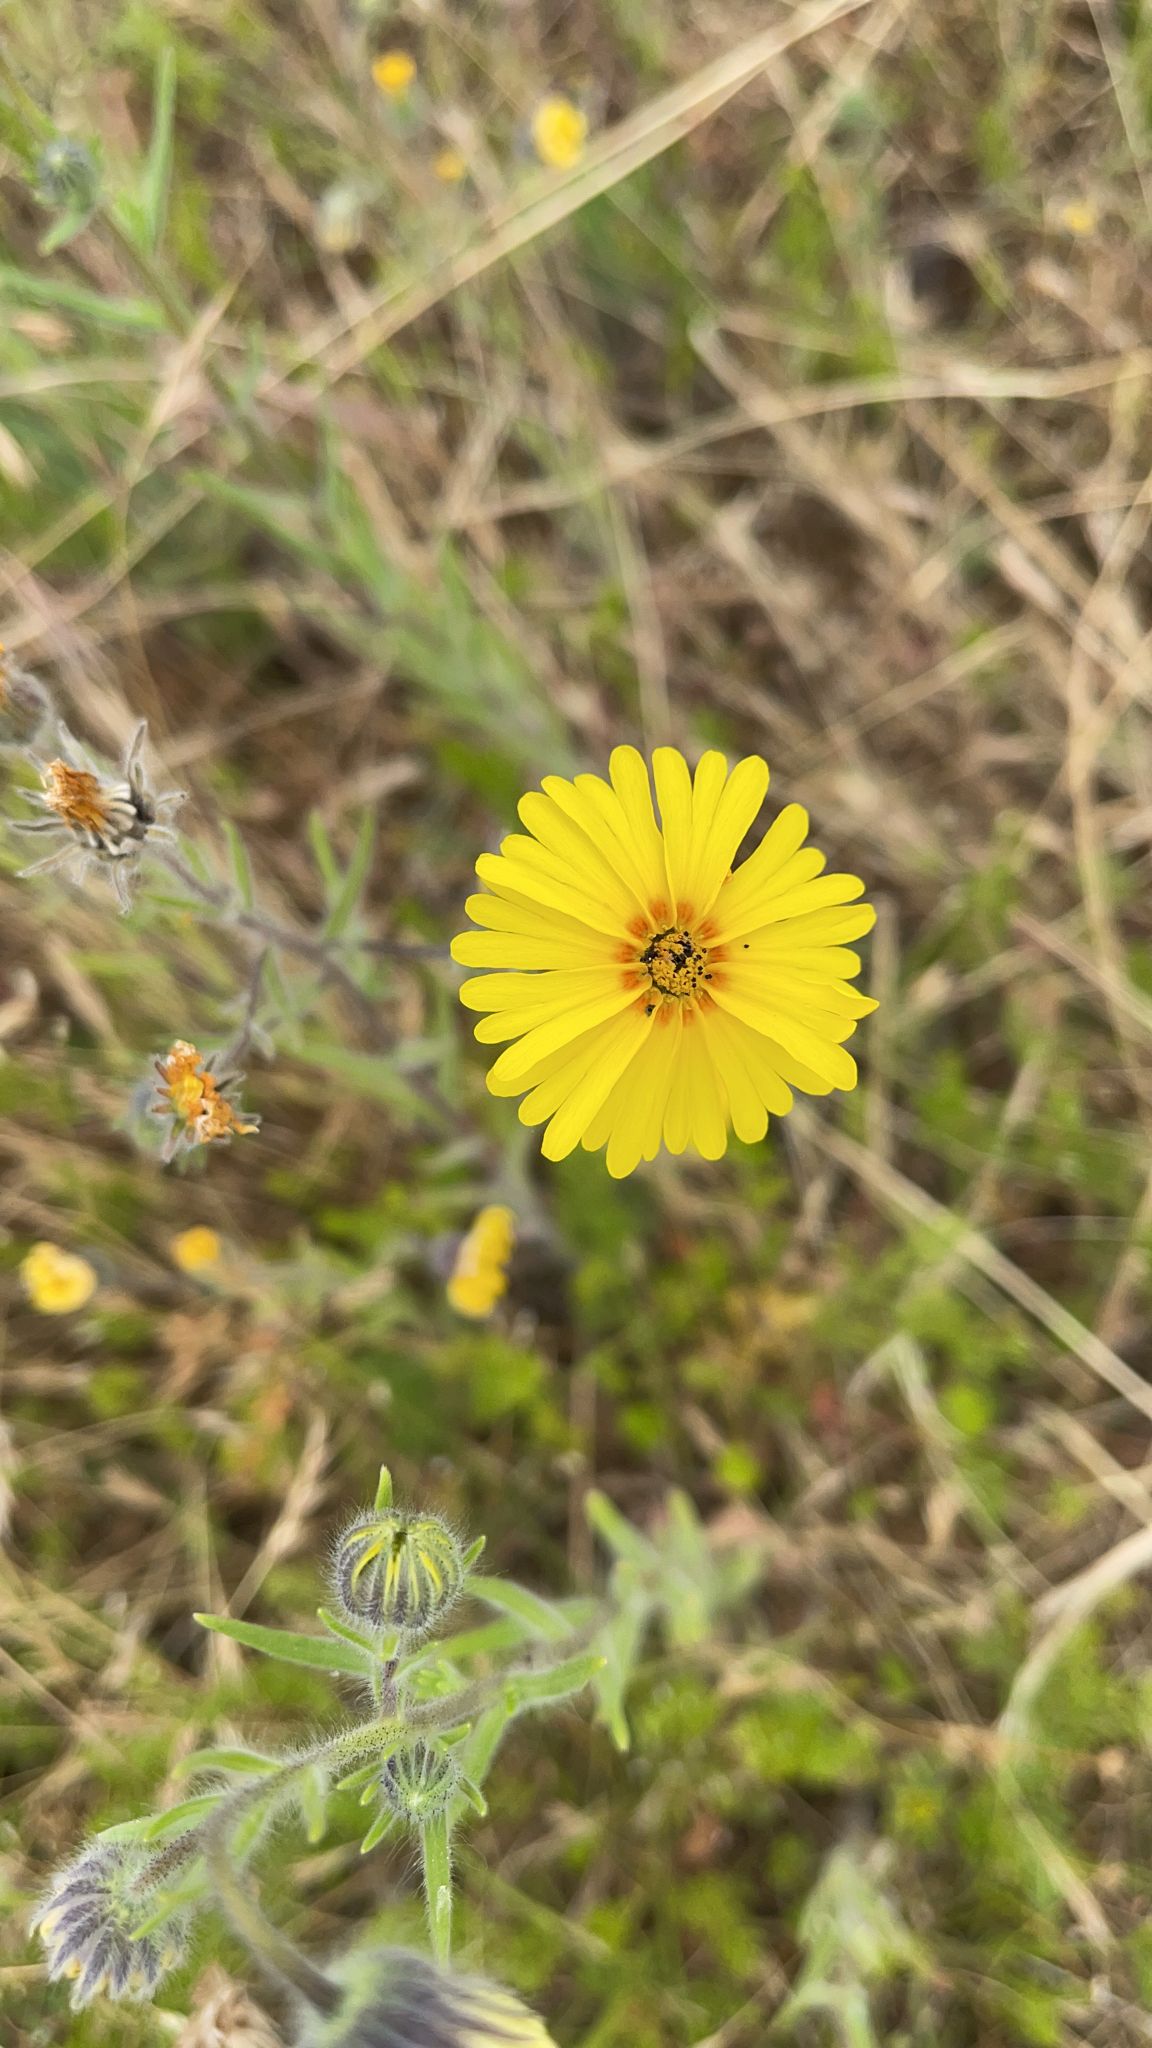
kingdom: Plantae
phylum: Tracheophyta
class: Magnoliopsida
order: Asterales
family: Asteraceae
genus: Madia
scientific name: Madia elegans
